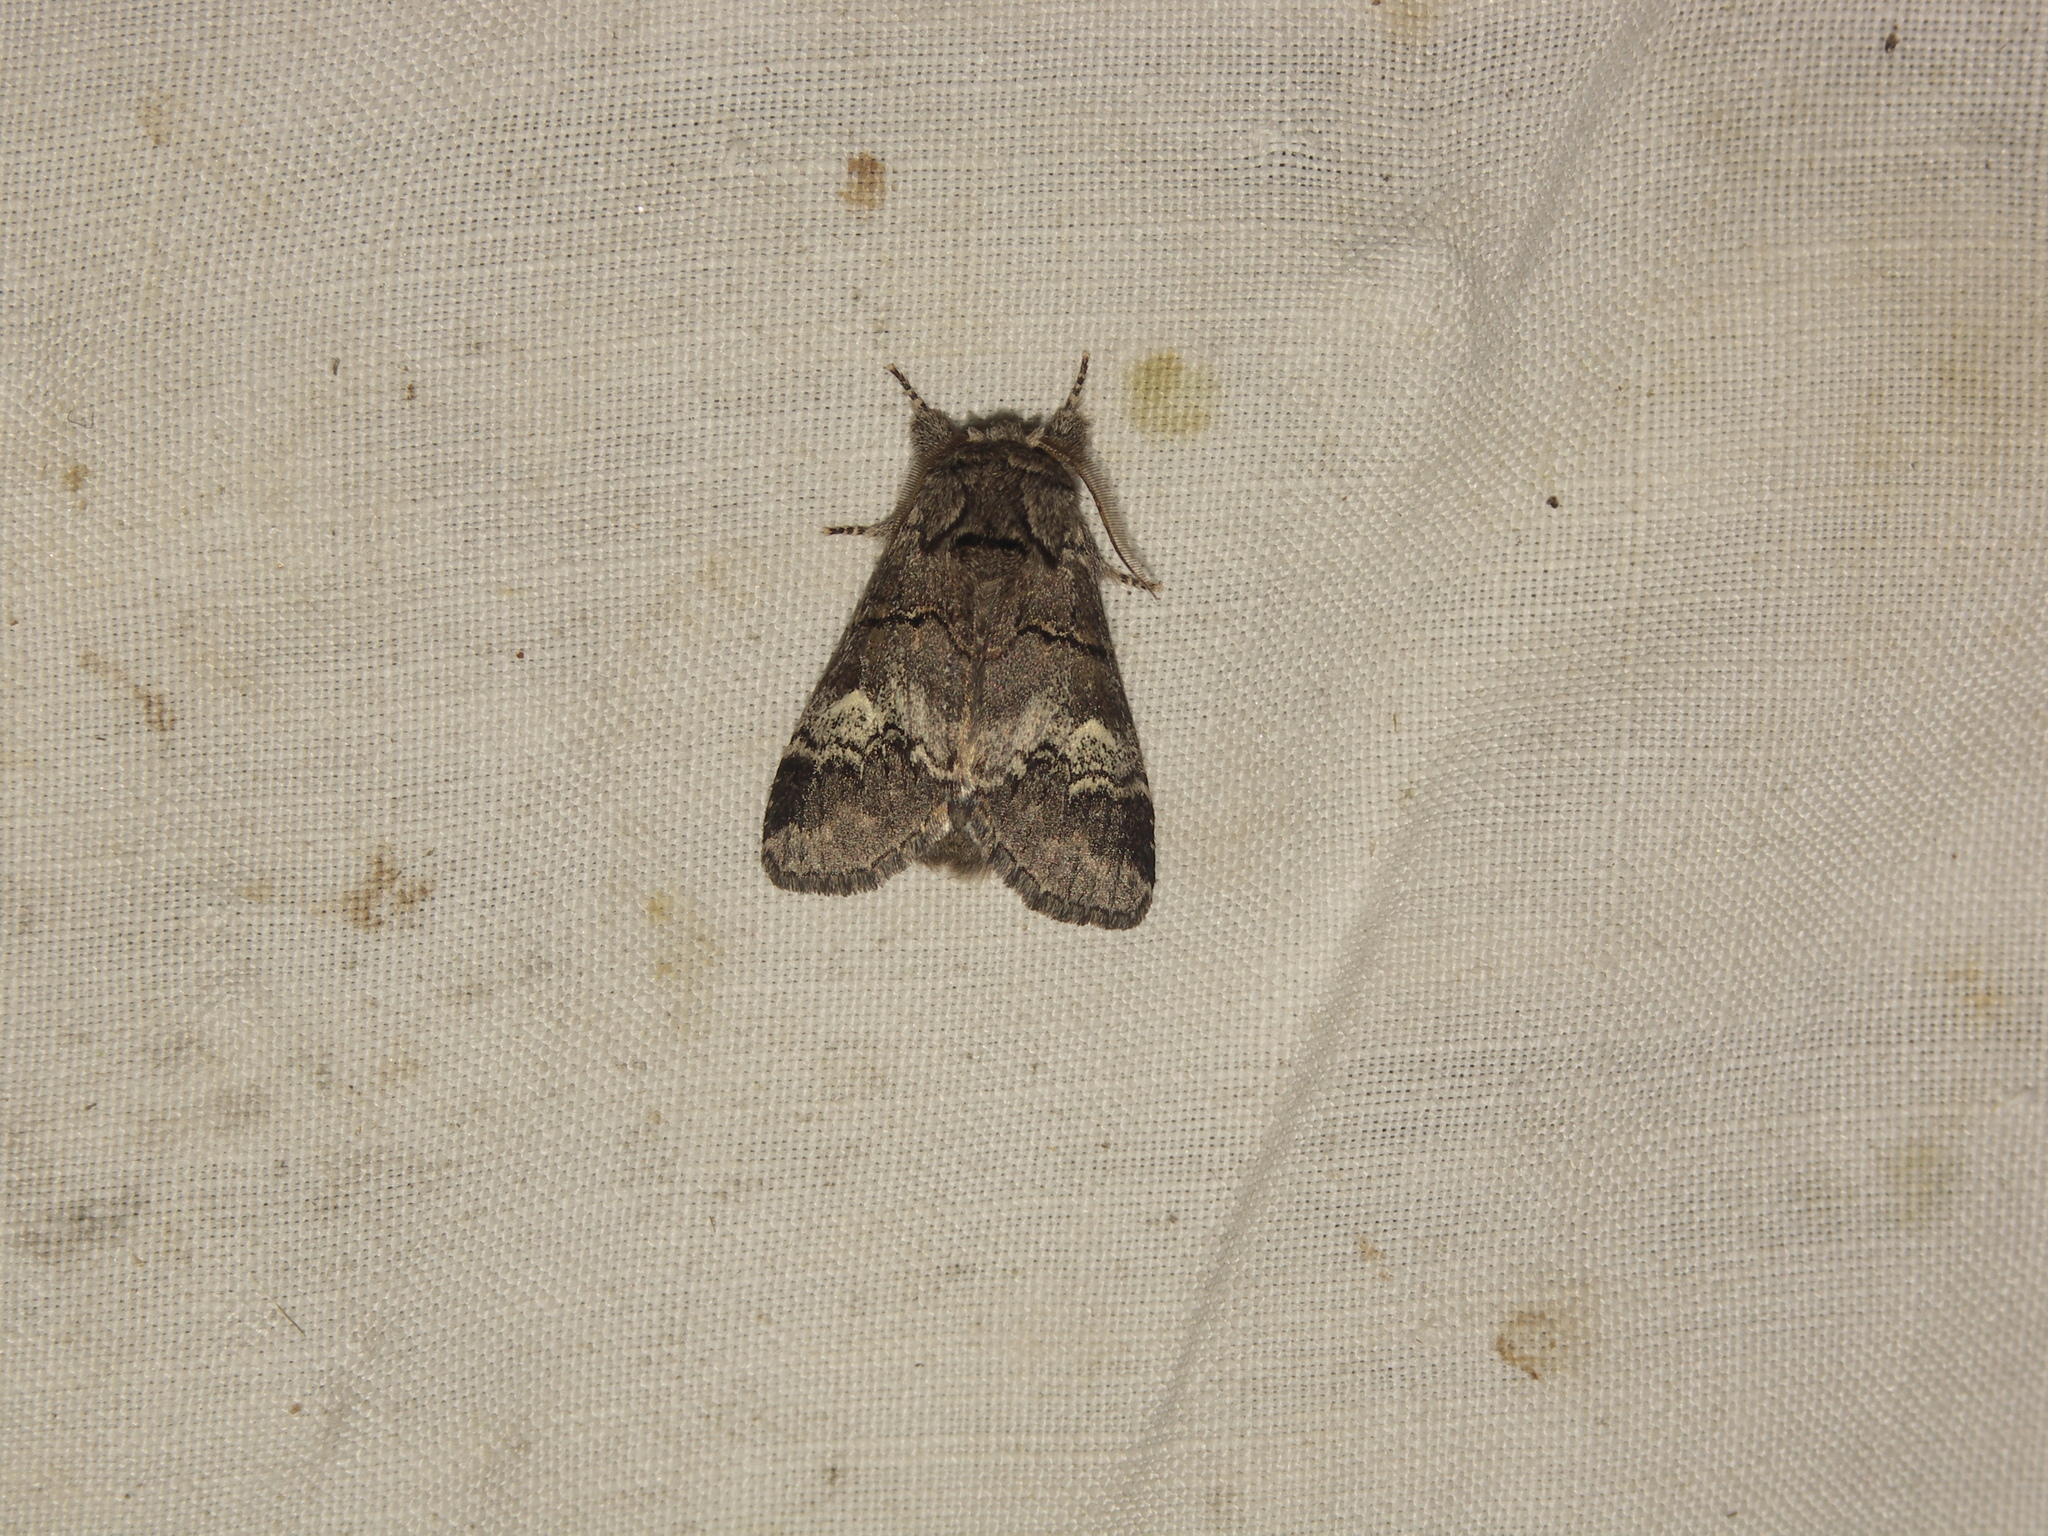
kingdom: Animalia
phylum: Arthropoda
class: Insecta
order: Lepidoptera
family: Notodontidae
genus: Drymonia
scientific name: Drymonia querna
